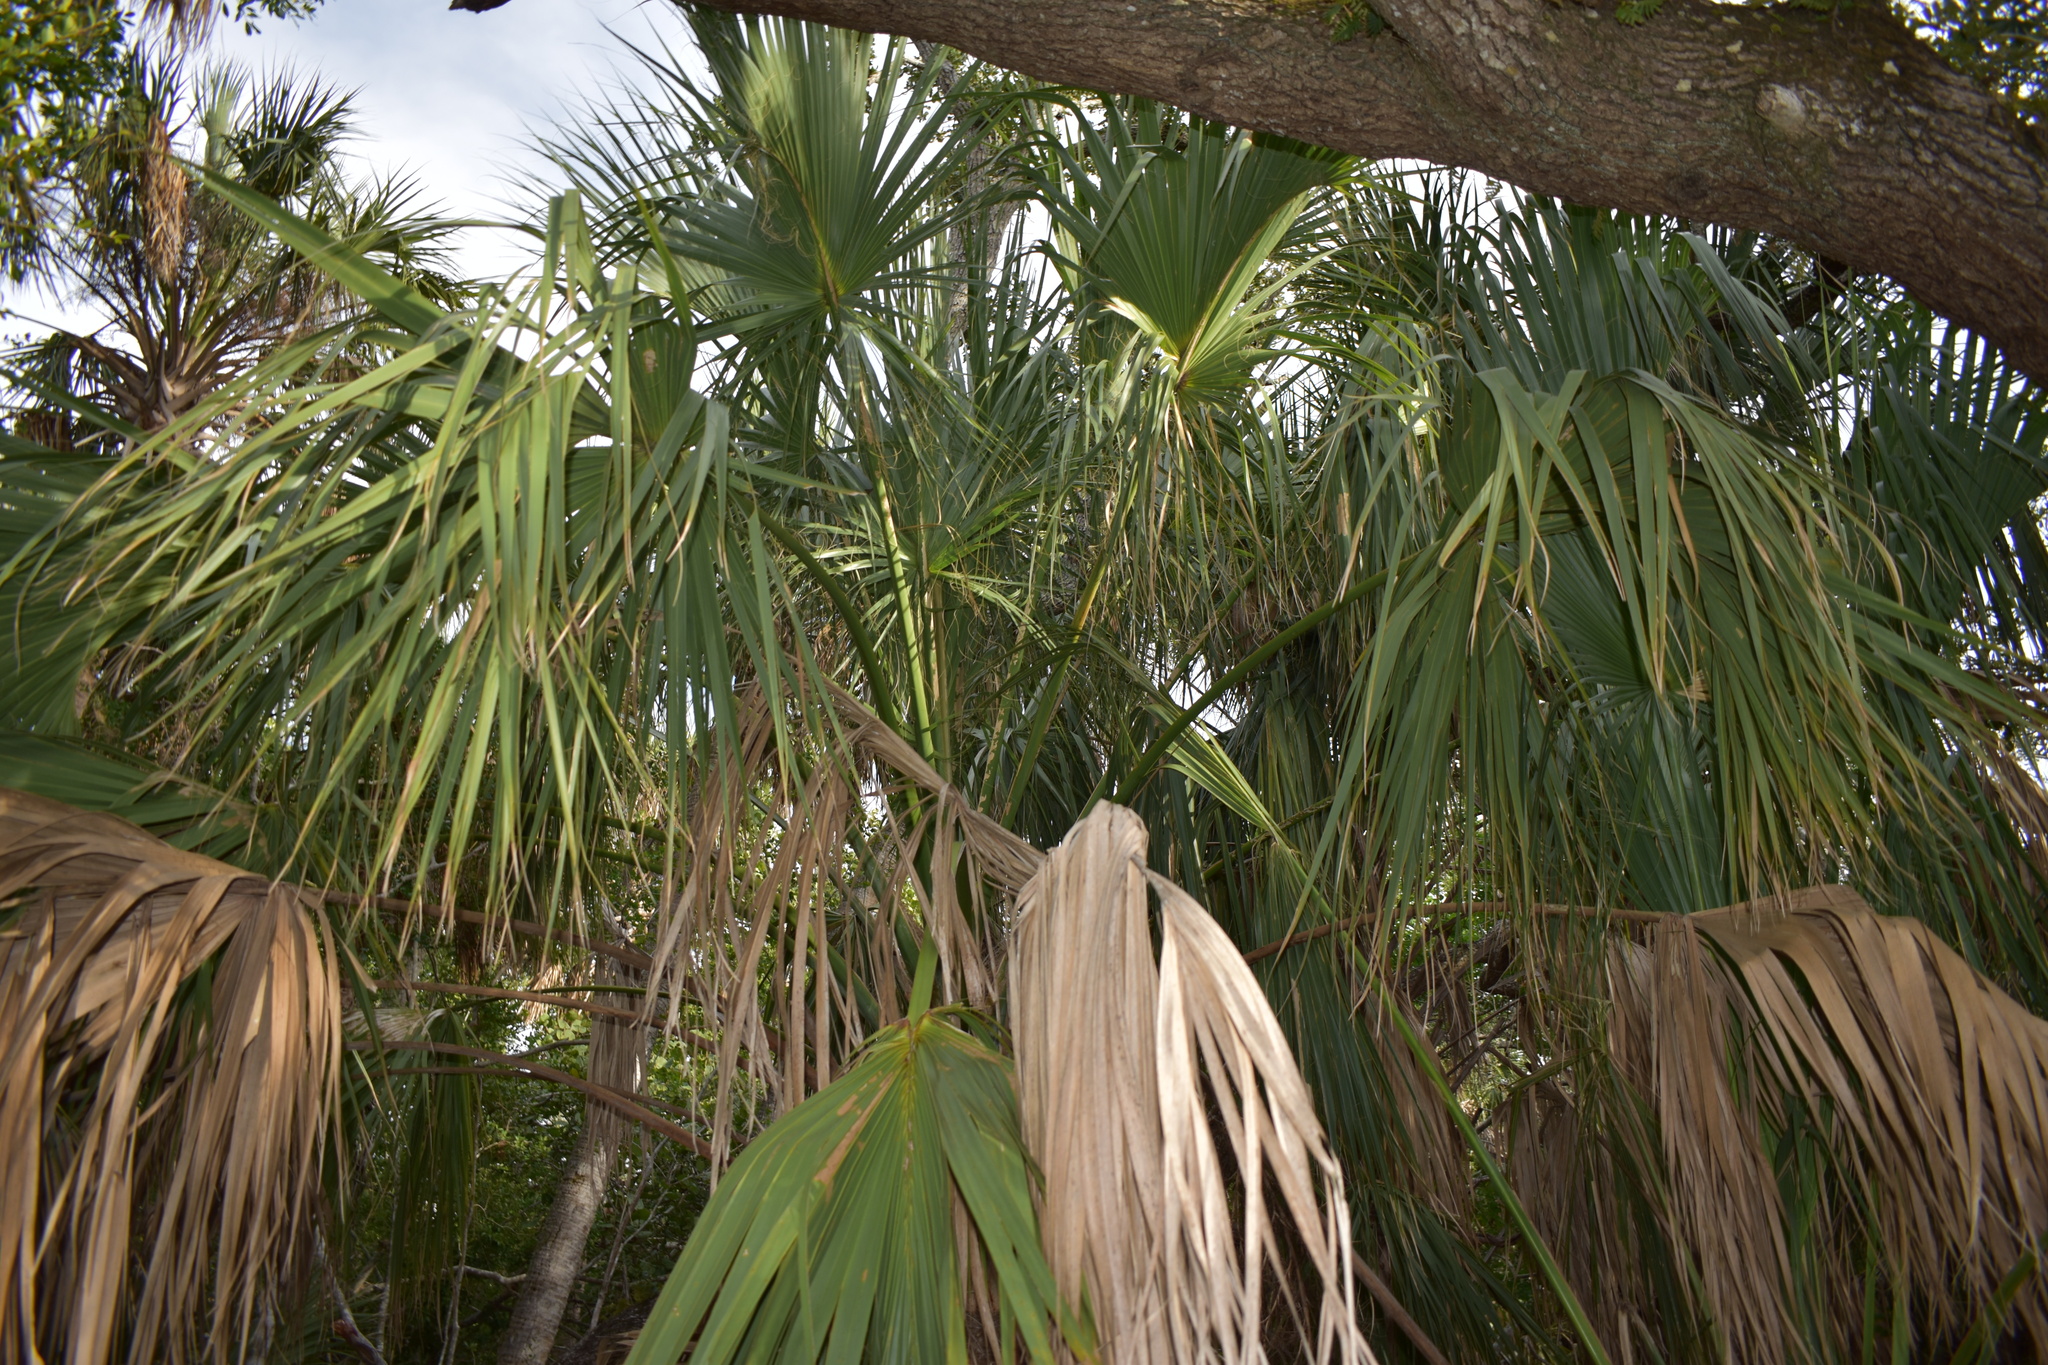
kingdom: Plantae
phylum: Tracheophyta
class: Liliopsida
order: Arecales
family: Arecaceae
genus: Sabal
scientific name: Sabal palmetto
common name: Blue palmetto
